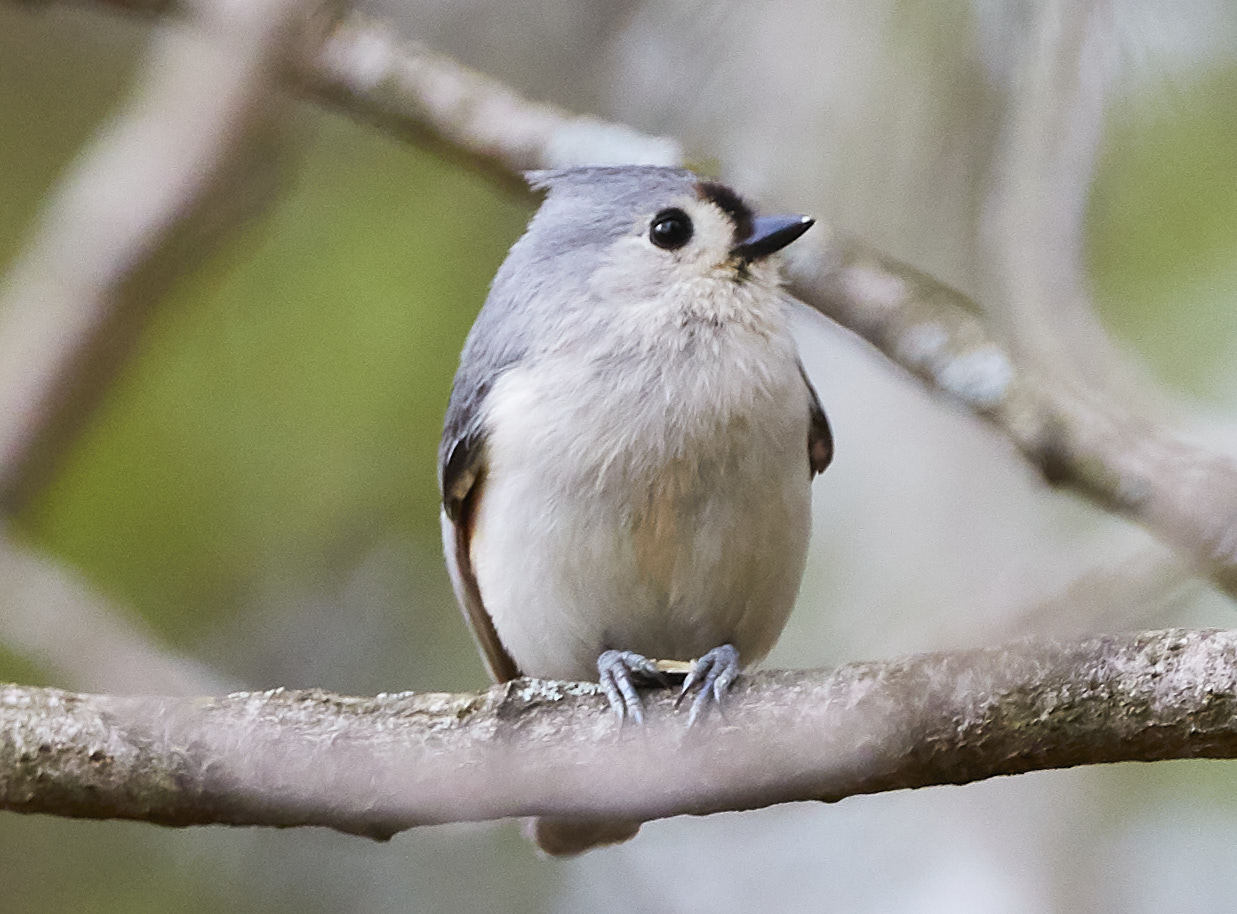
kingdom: Animalia
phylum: Chordata
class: Aves
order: Passeriformes
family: Paridae
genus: Baeolophus
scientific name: Baeolophus bicolor
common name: Tufted titmouse
